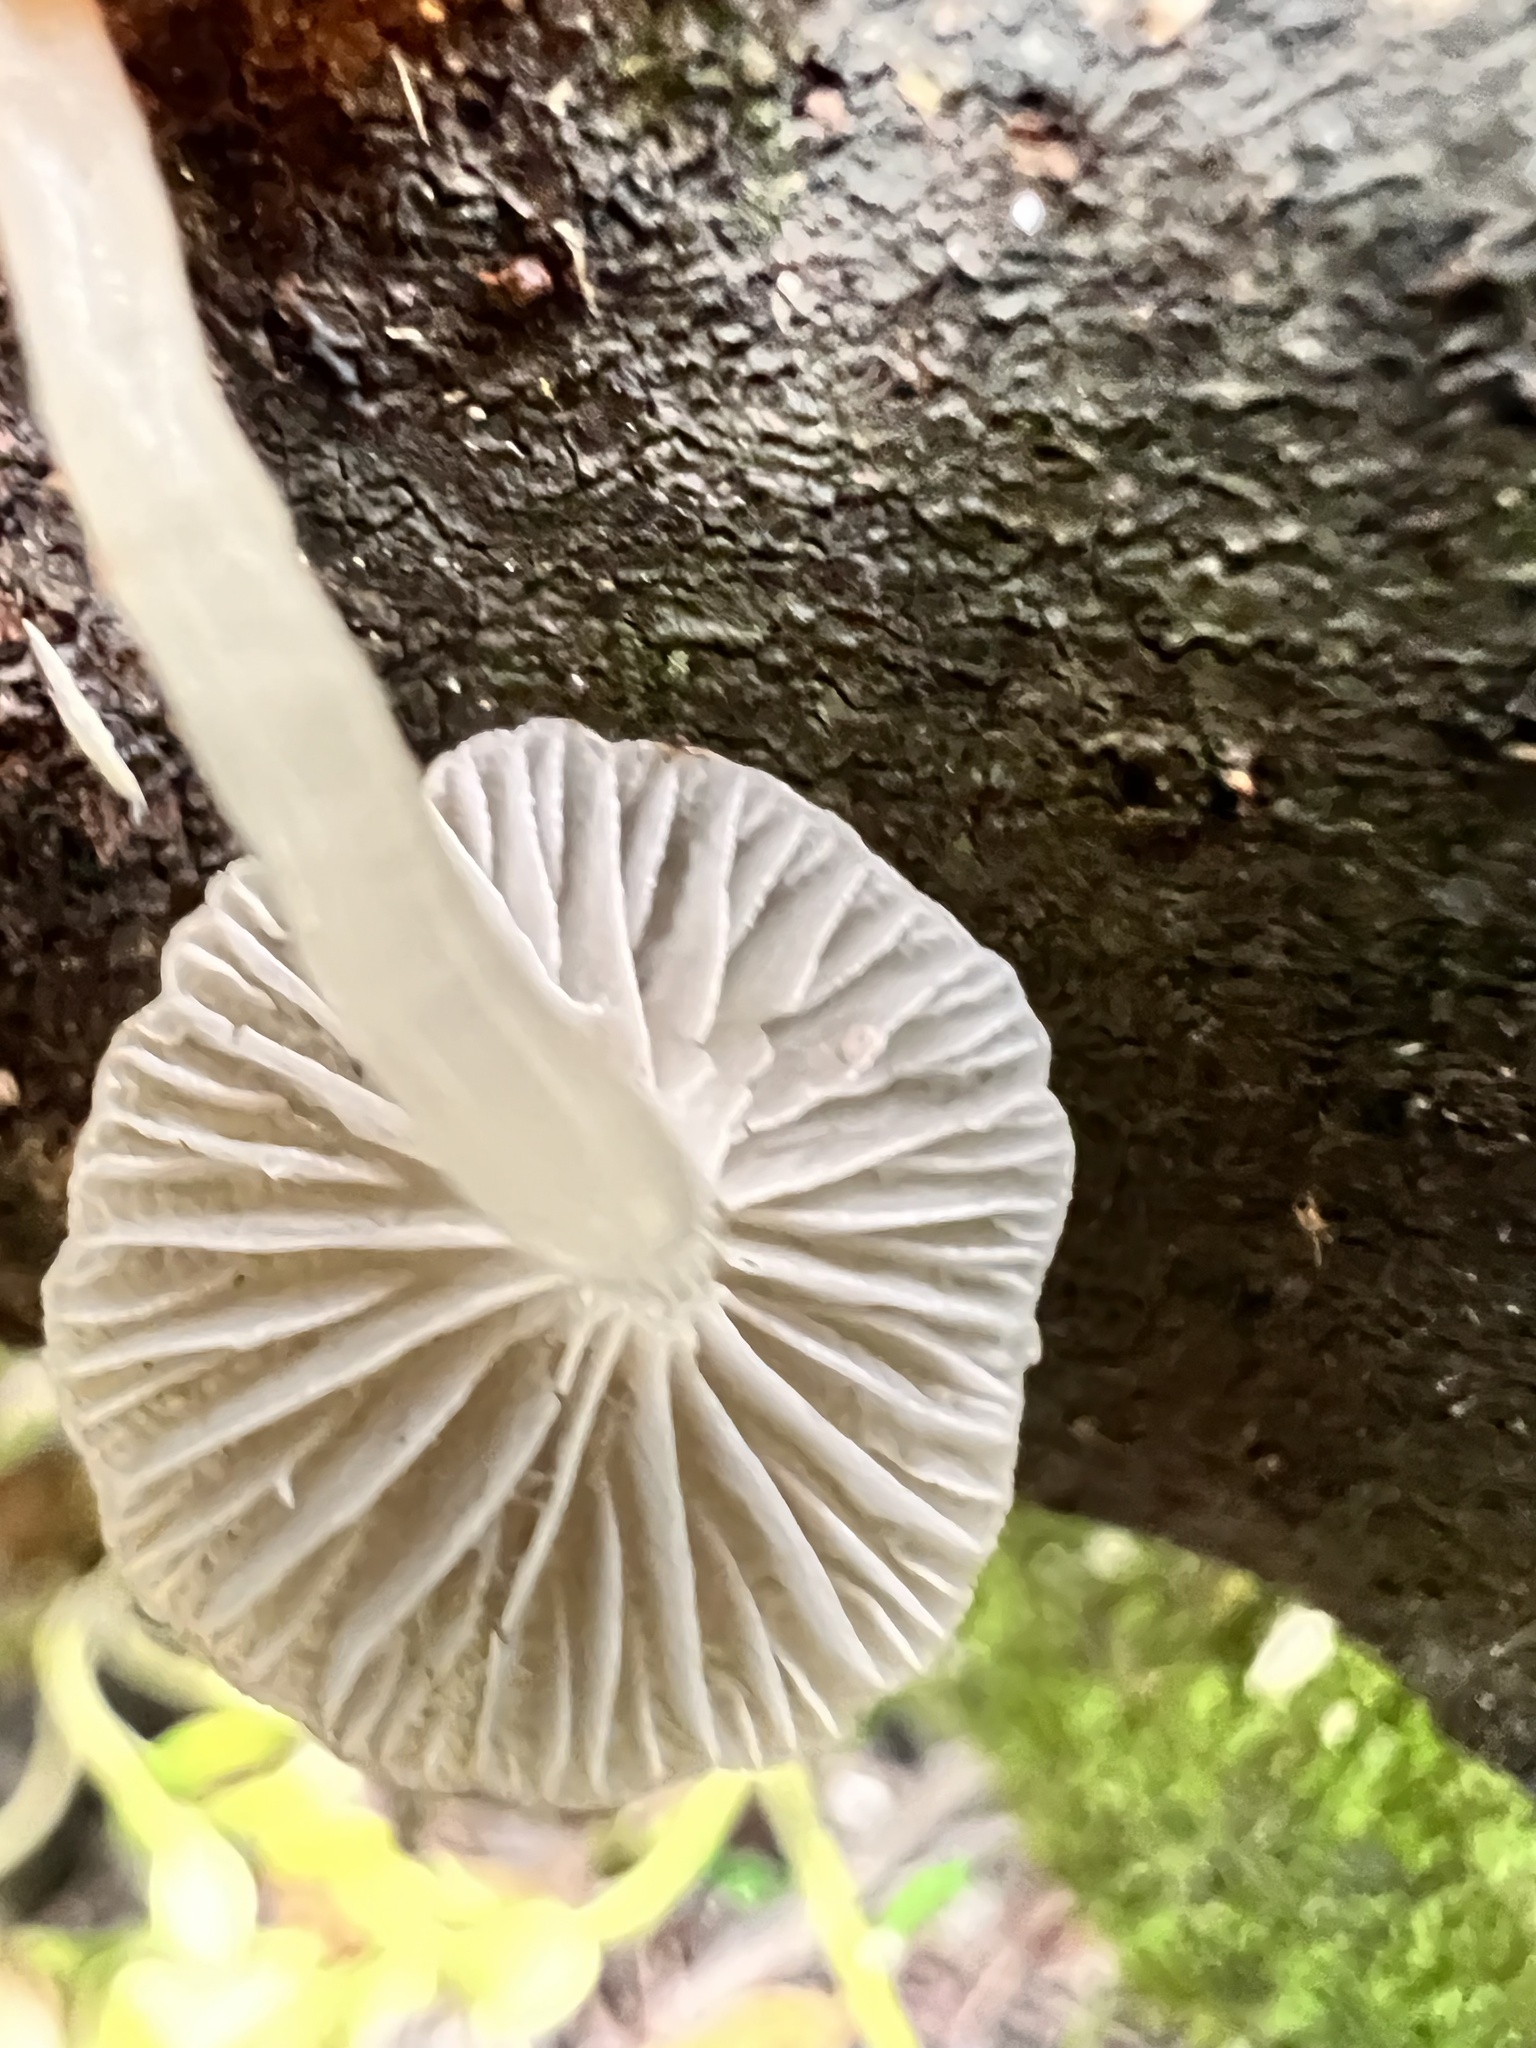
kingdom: Fungi
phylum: Basidiomycota
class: Agaricomycetes
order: Agaricales
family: Mycenaceae
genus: Roridomyces
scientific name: Roridomyces austrororidus
